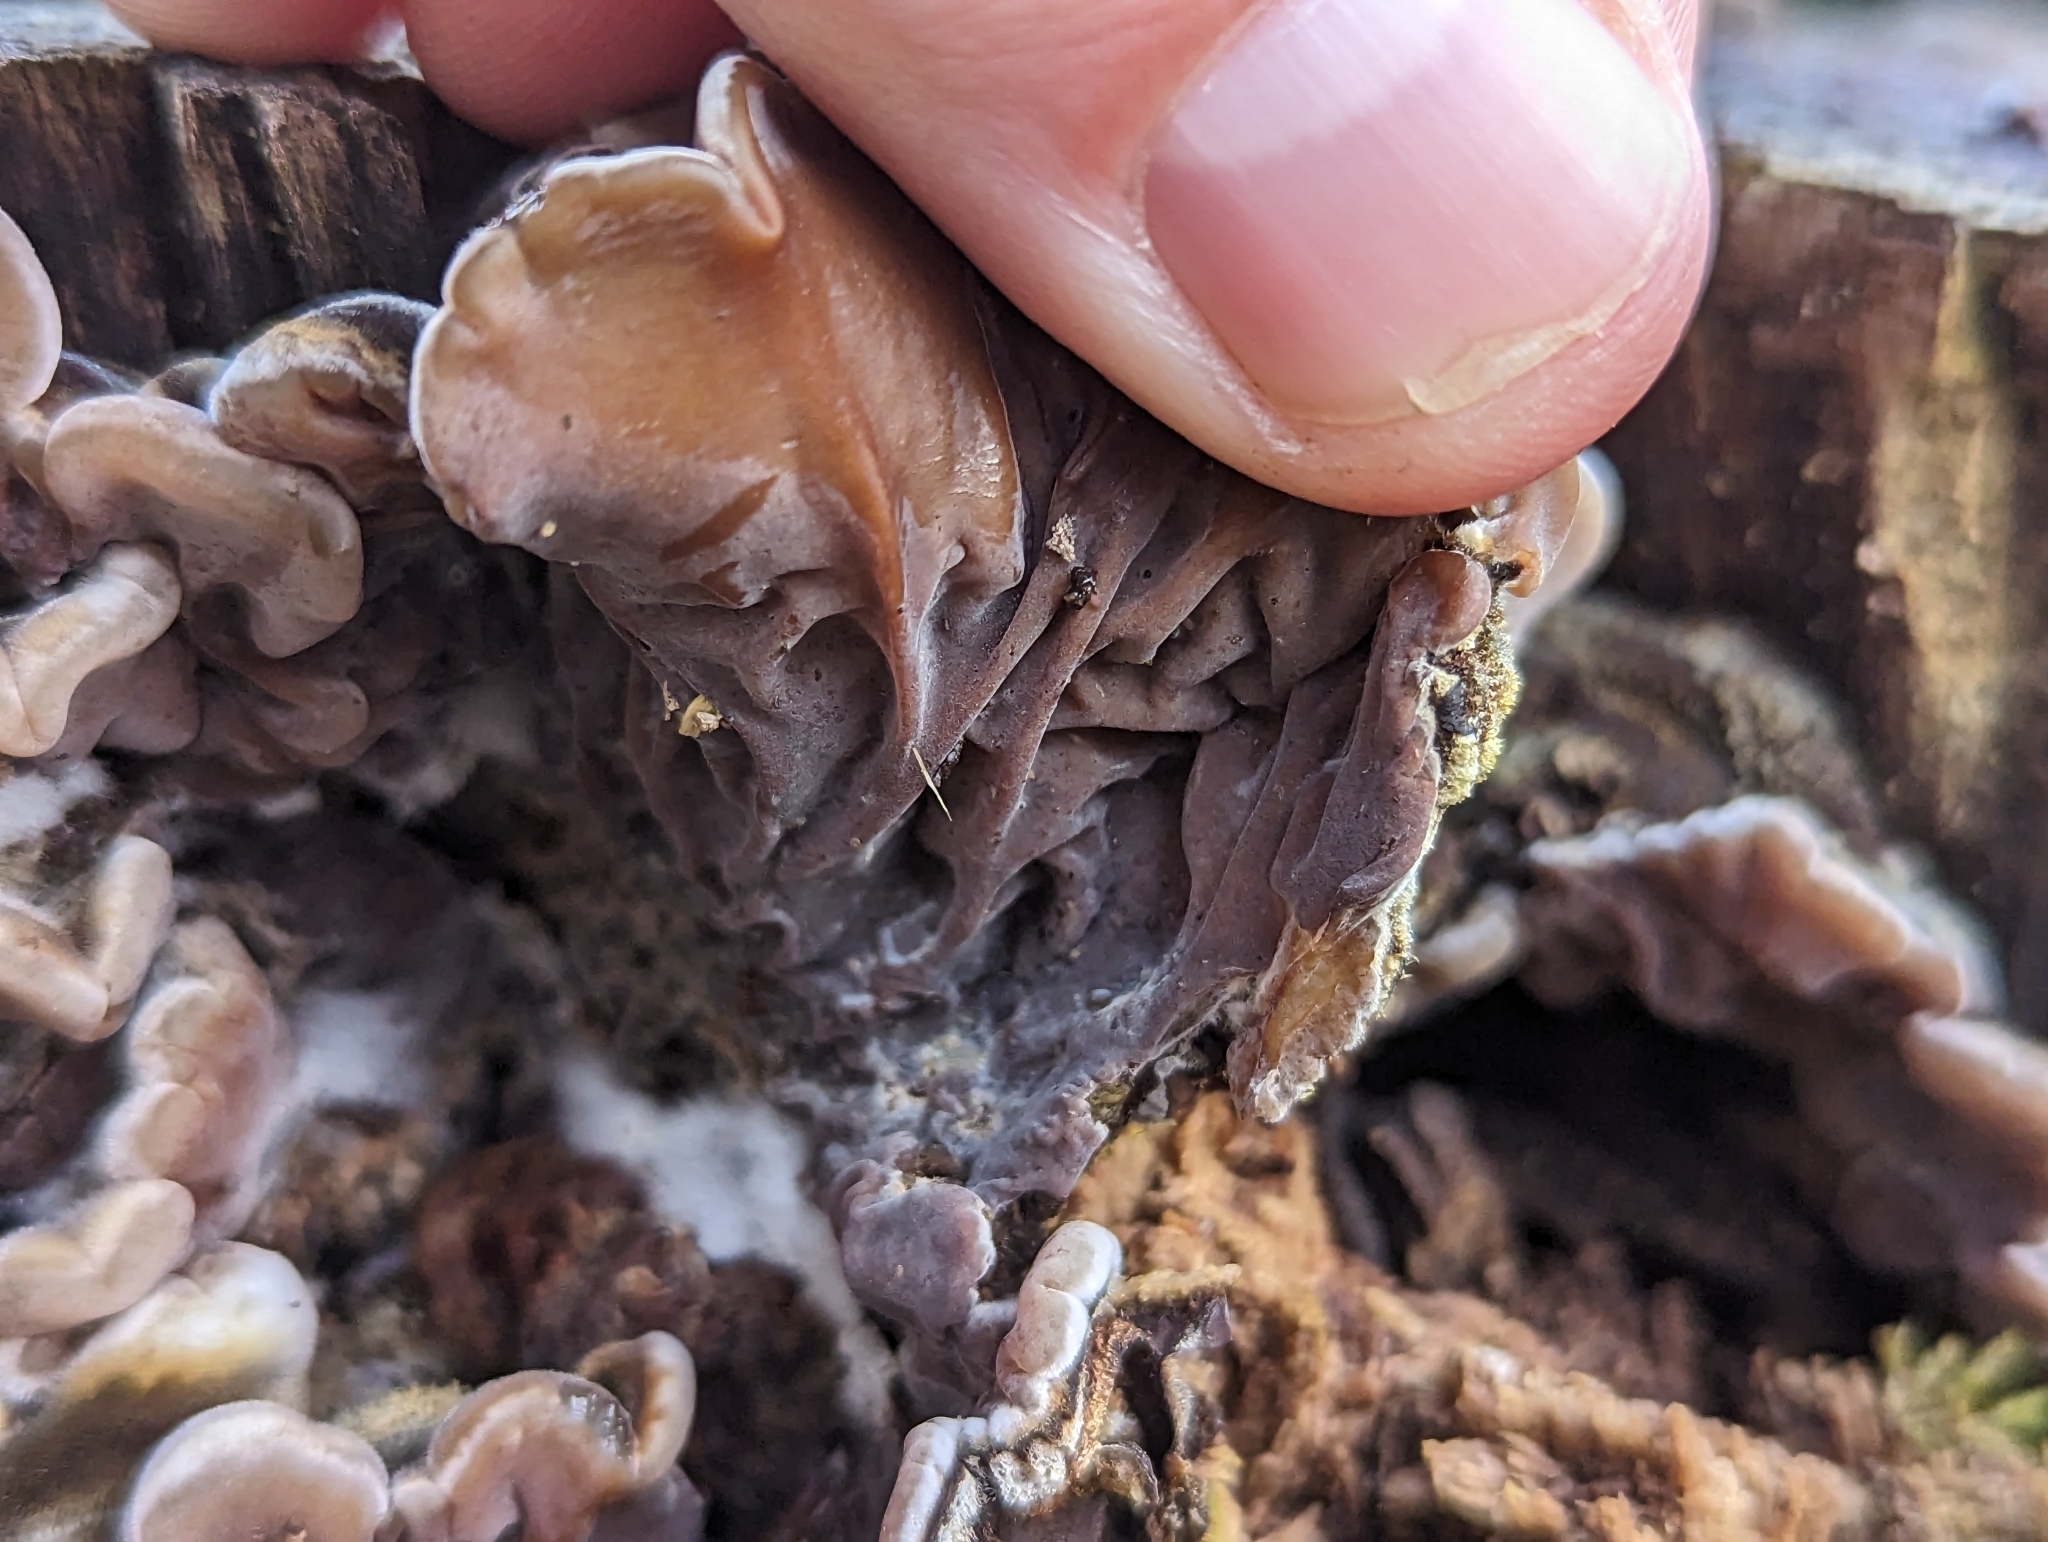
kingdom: Fungi
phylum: Basidiomycota
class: Agaricomycetes
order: Auriculariales
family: Auriculariaceae
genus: Auricularia
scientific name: Auricularia mesenterica
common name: Tripe fungus
